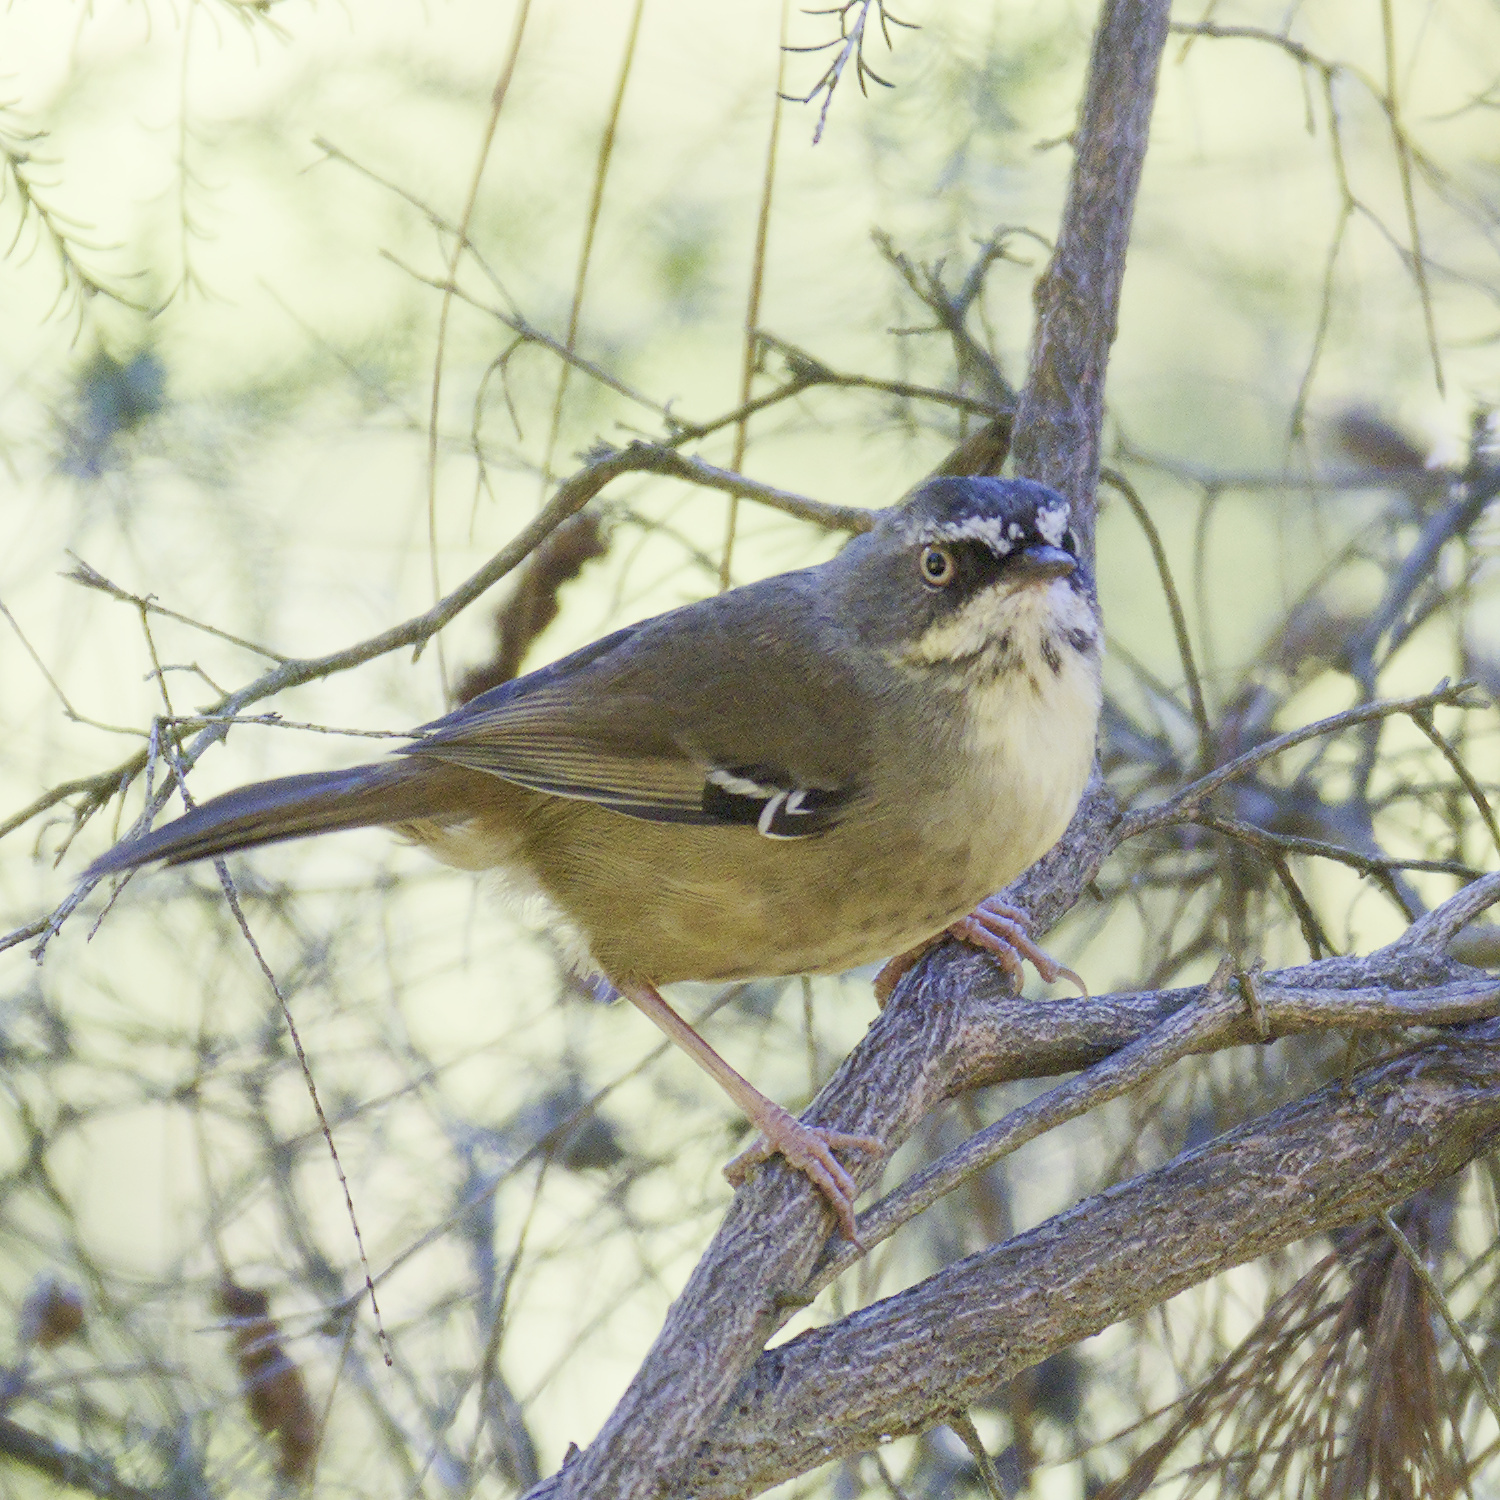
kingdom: Animalia
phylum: Chordata
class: Aves
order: Passeriformes
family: Acanthizidae
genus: Sericornis
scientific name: Sericornis frontalis
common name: White-browed scrubwren
